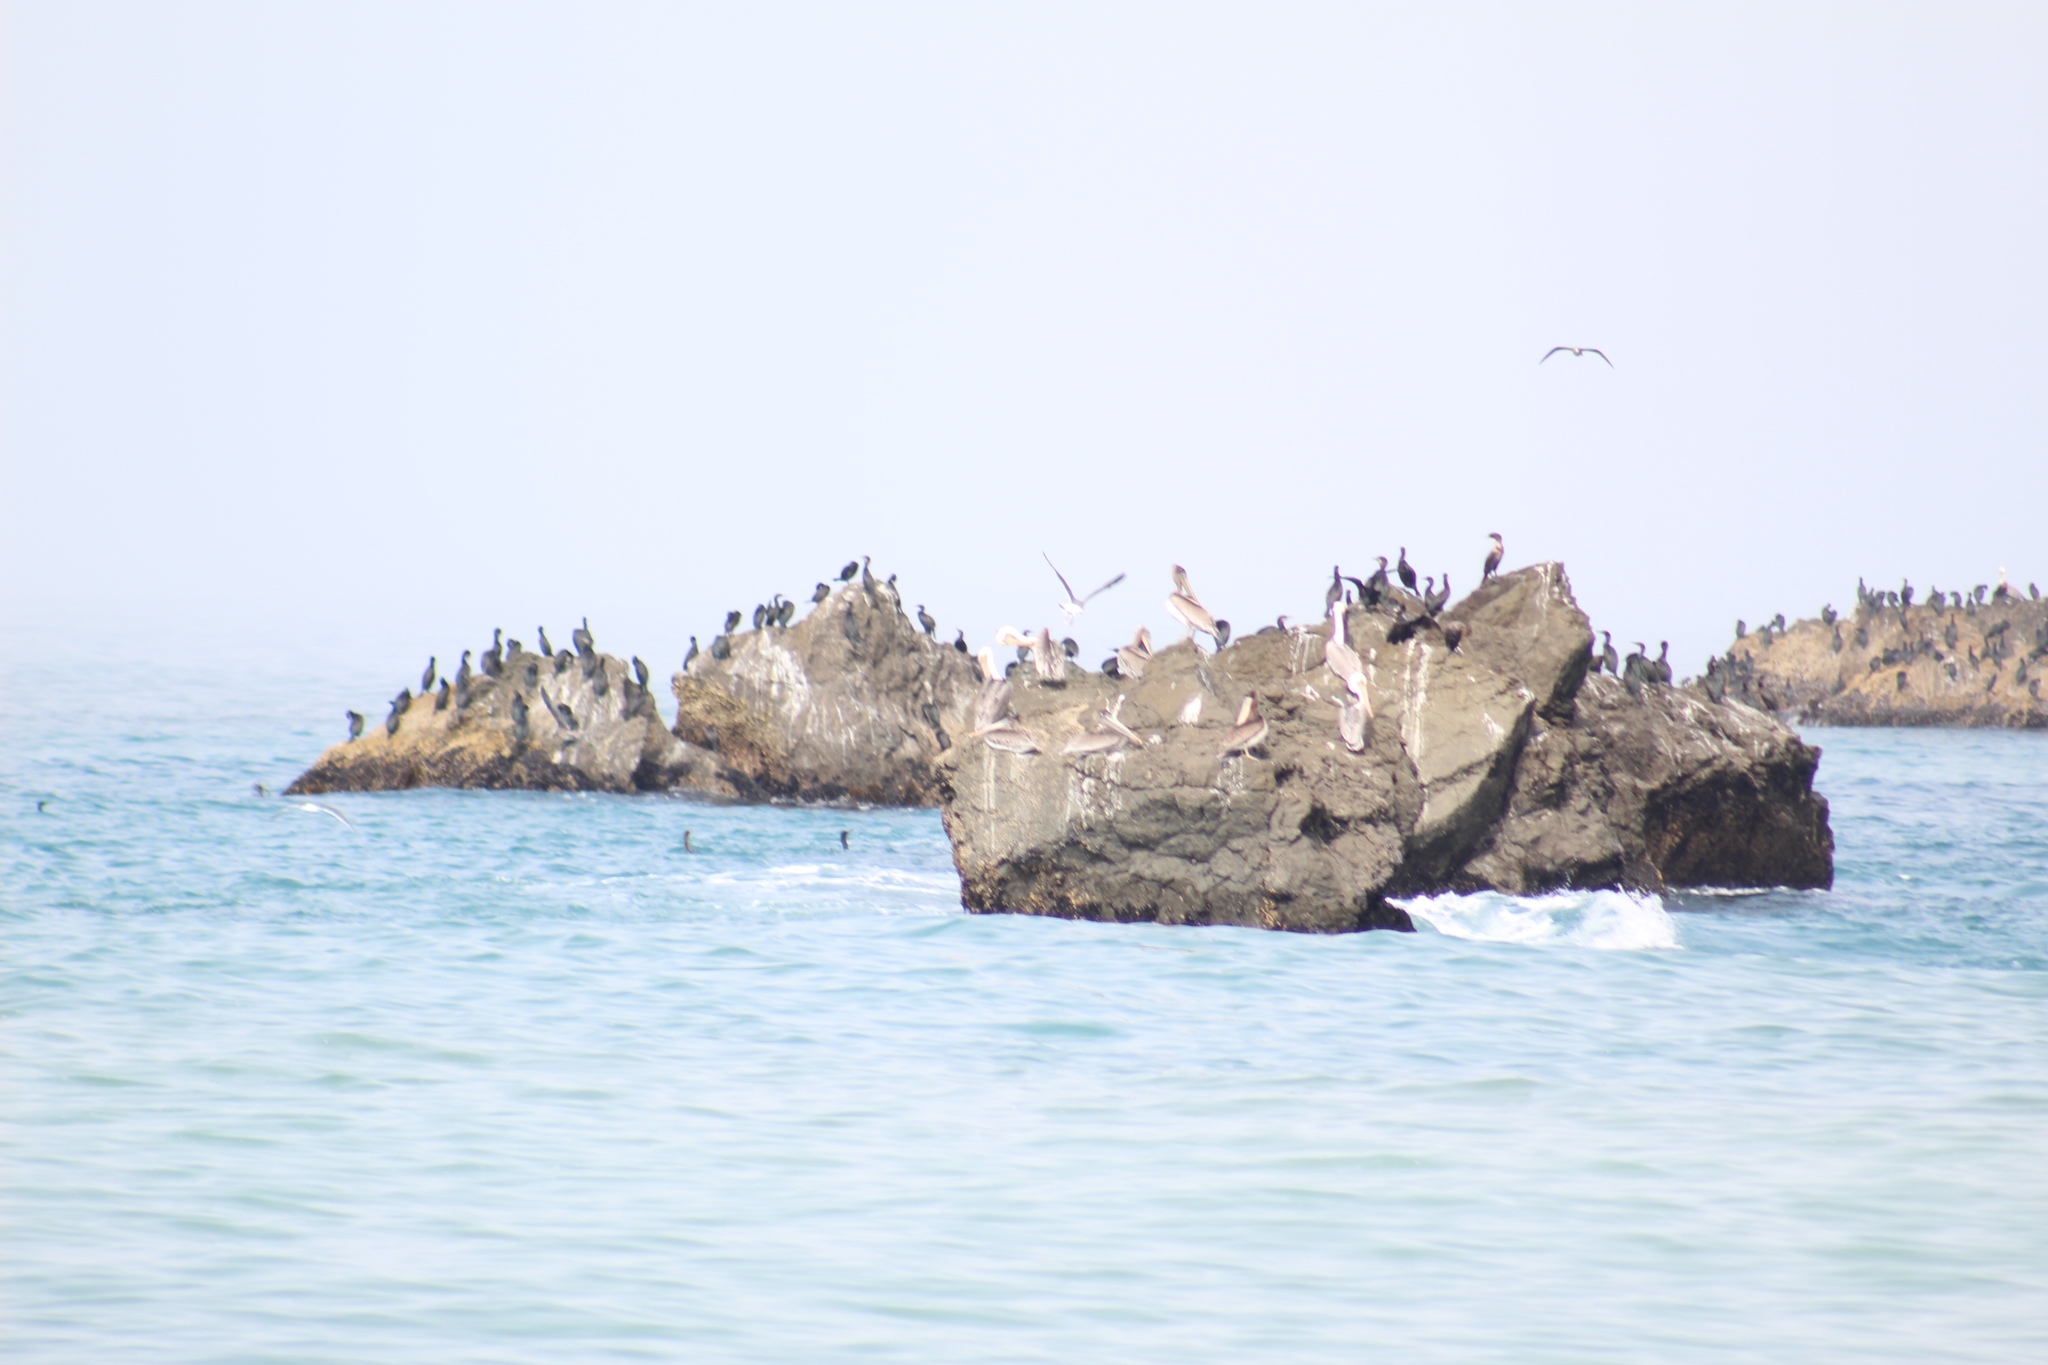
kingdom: Animalia
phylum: Chordata
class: Aves
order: Pelecaniformes
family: Pelecanidae
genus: Pelecanus
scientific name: Pelecanus occidentalis
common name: Brown pelican
